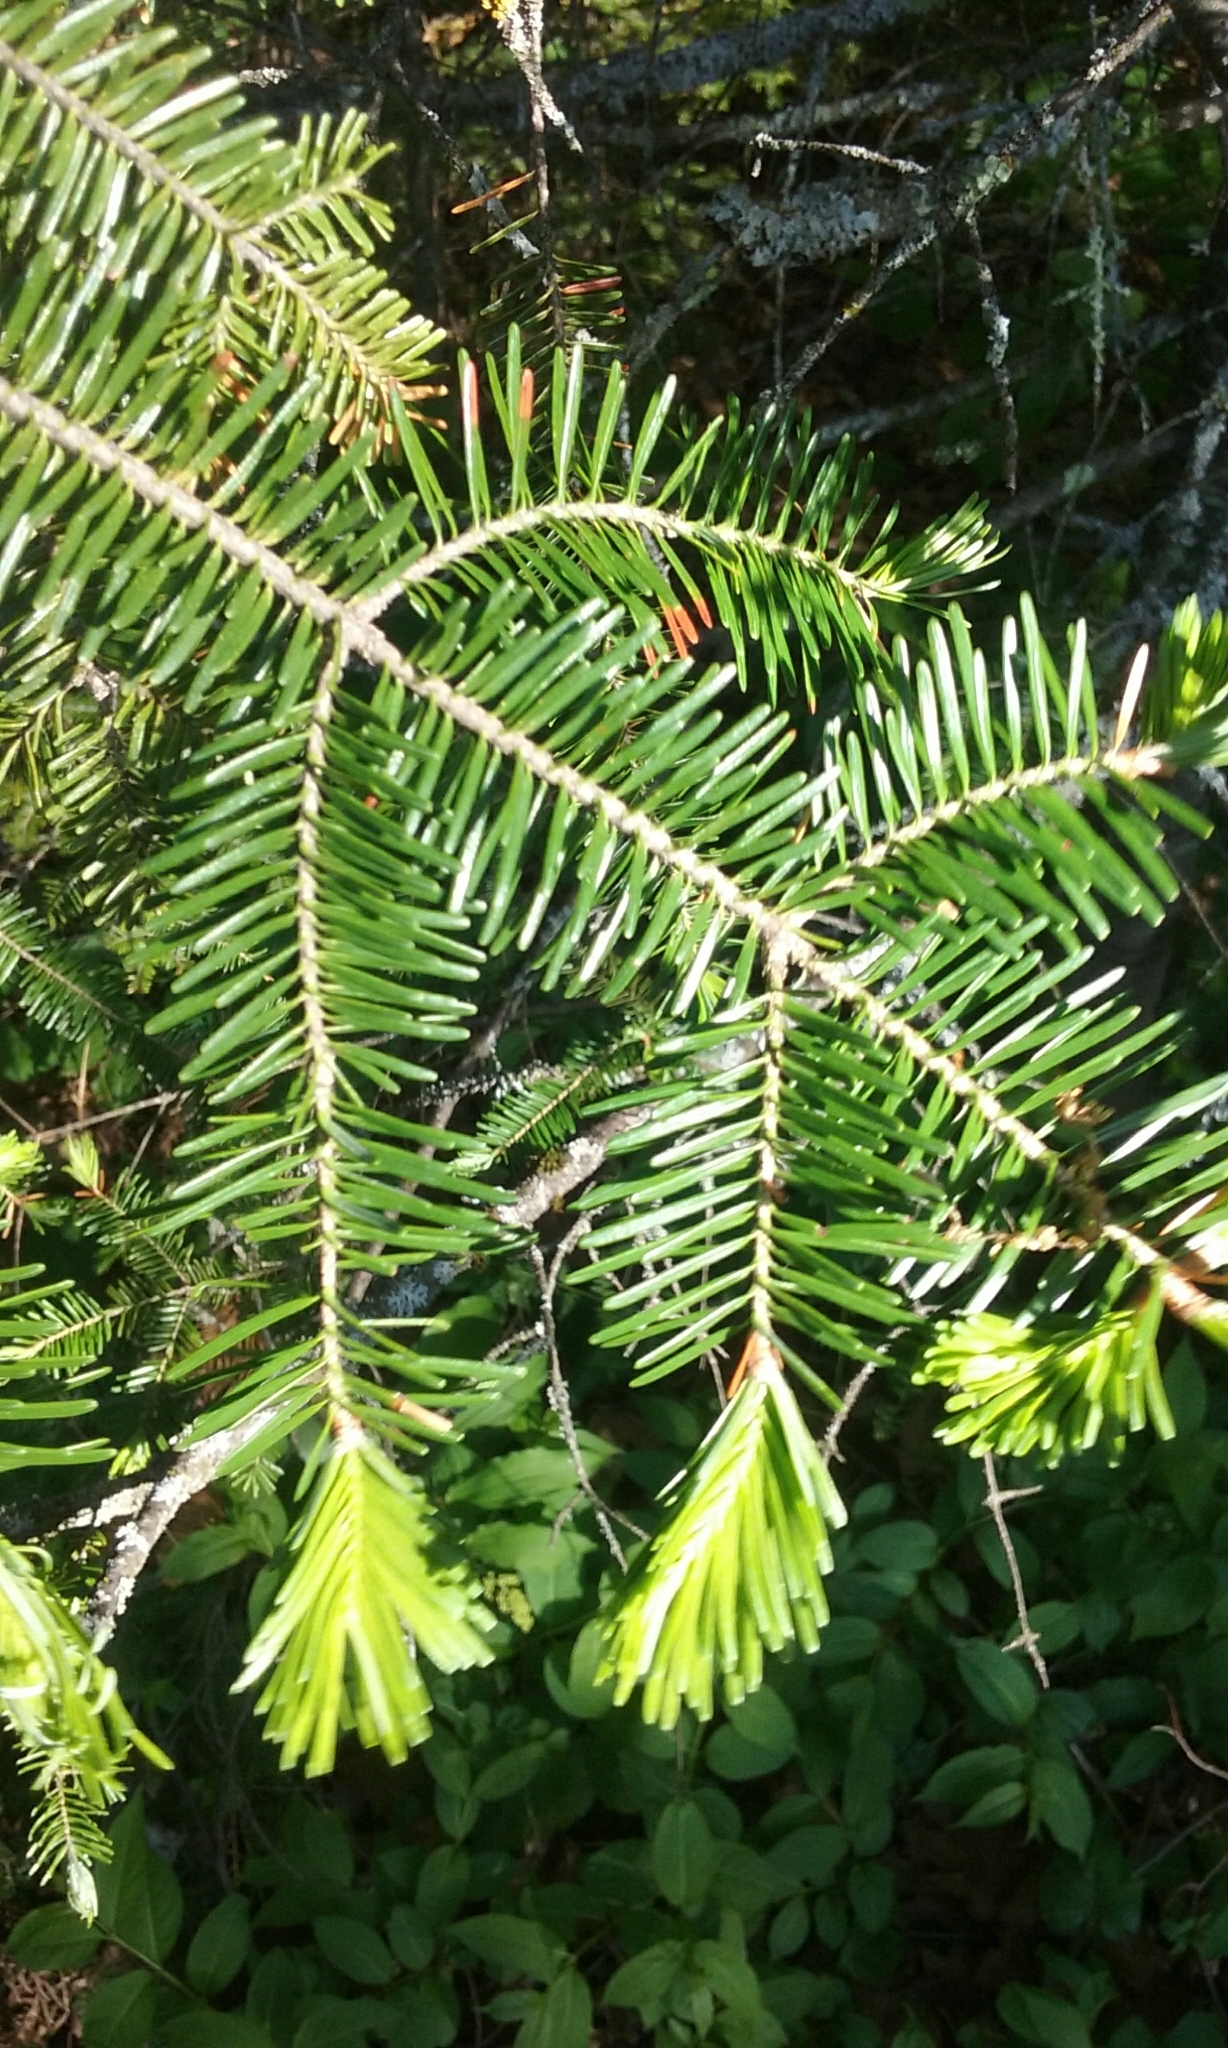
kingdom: Plantae
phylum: Tracheophyta
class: Pinopsida
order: Pinales
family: Pinaceae
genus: Abies
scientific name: Abies balsamea
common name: Balsam fir
